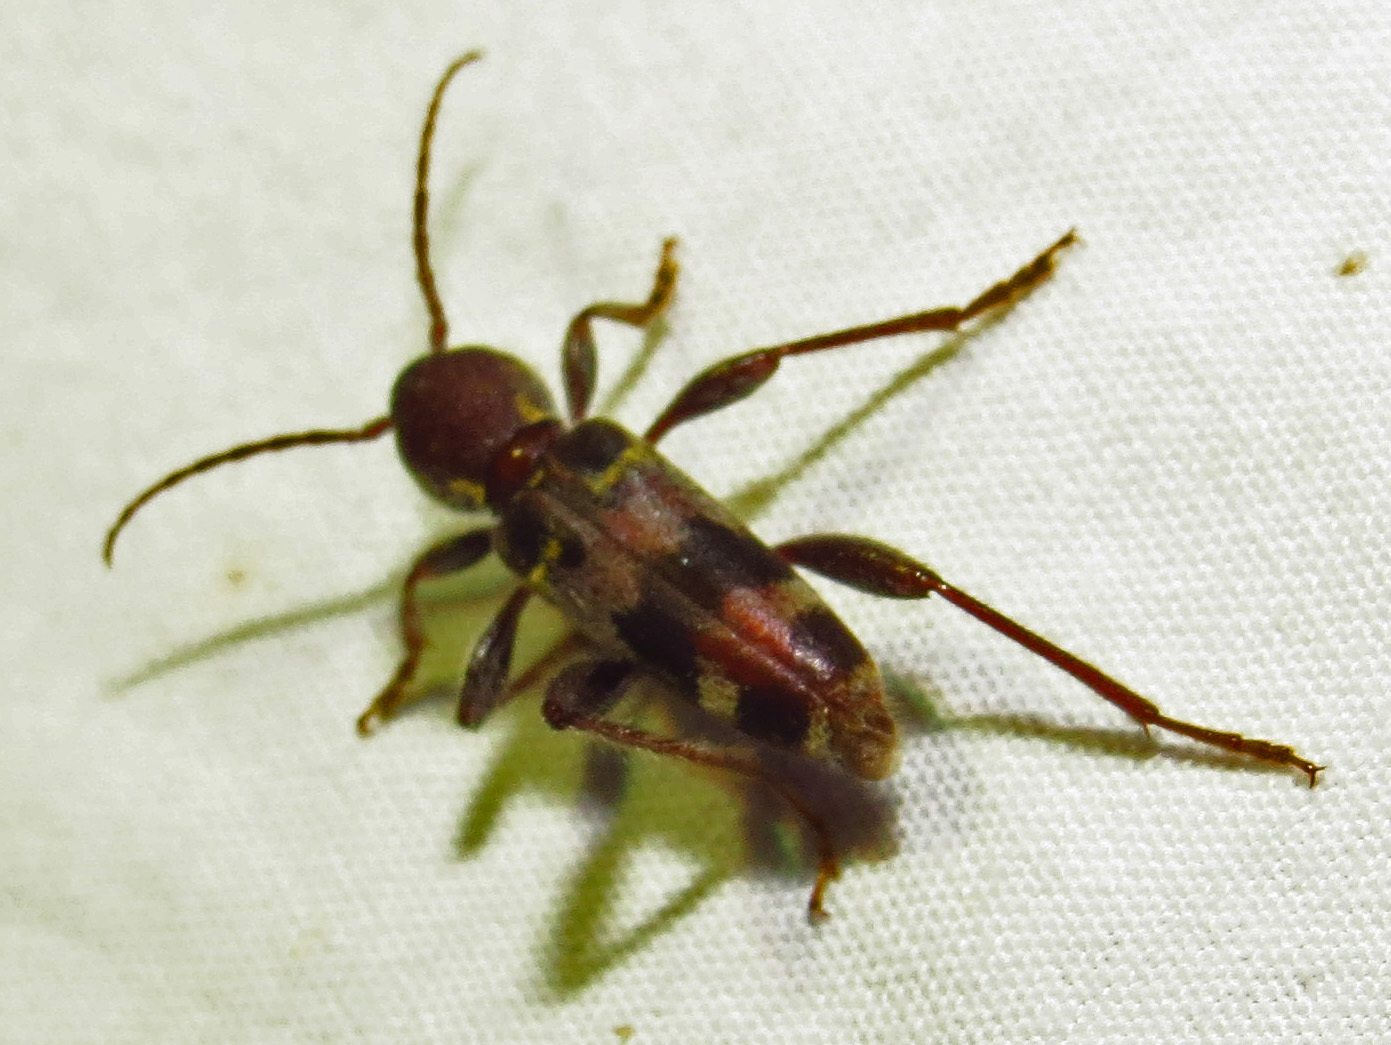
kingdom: Animalia
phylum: Arthropoda
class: Insecta
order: Coleoptera
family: Cerambycidae
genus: Xylotrechus
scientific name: Xylotrechus colonus
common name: Long-horned beetle
